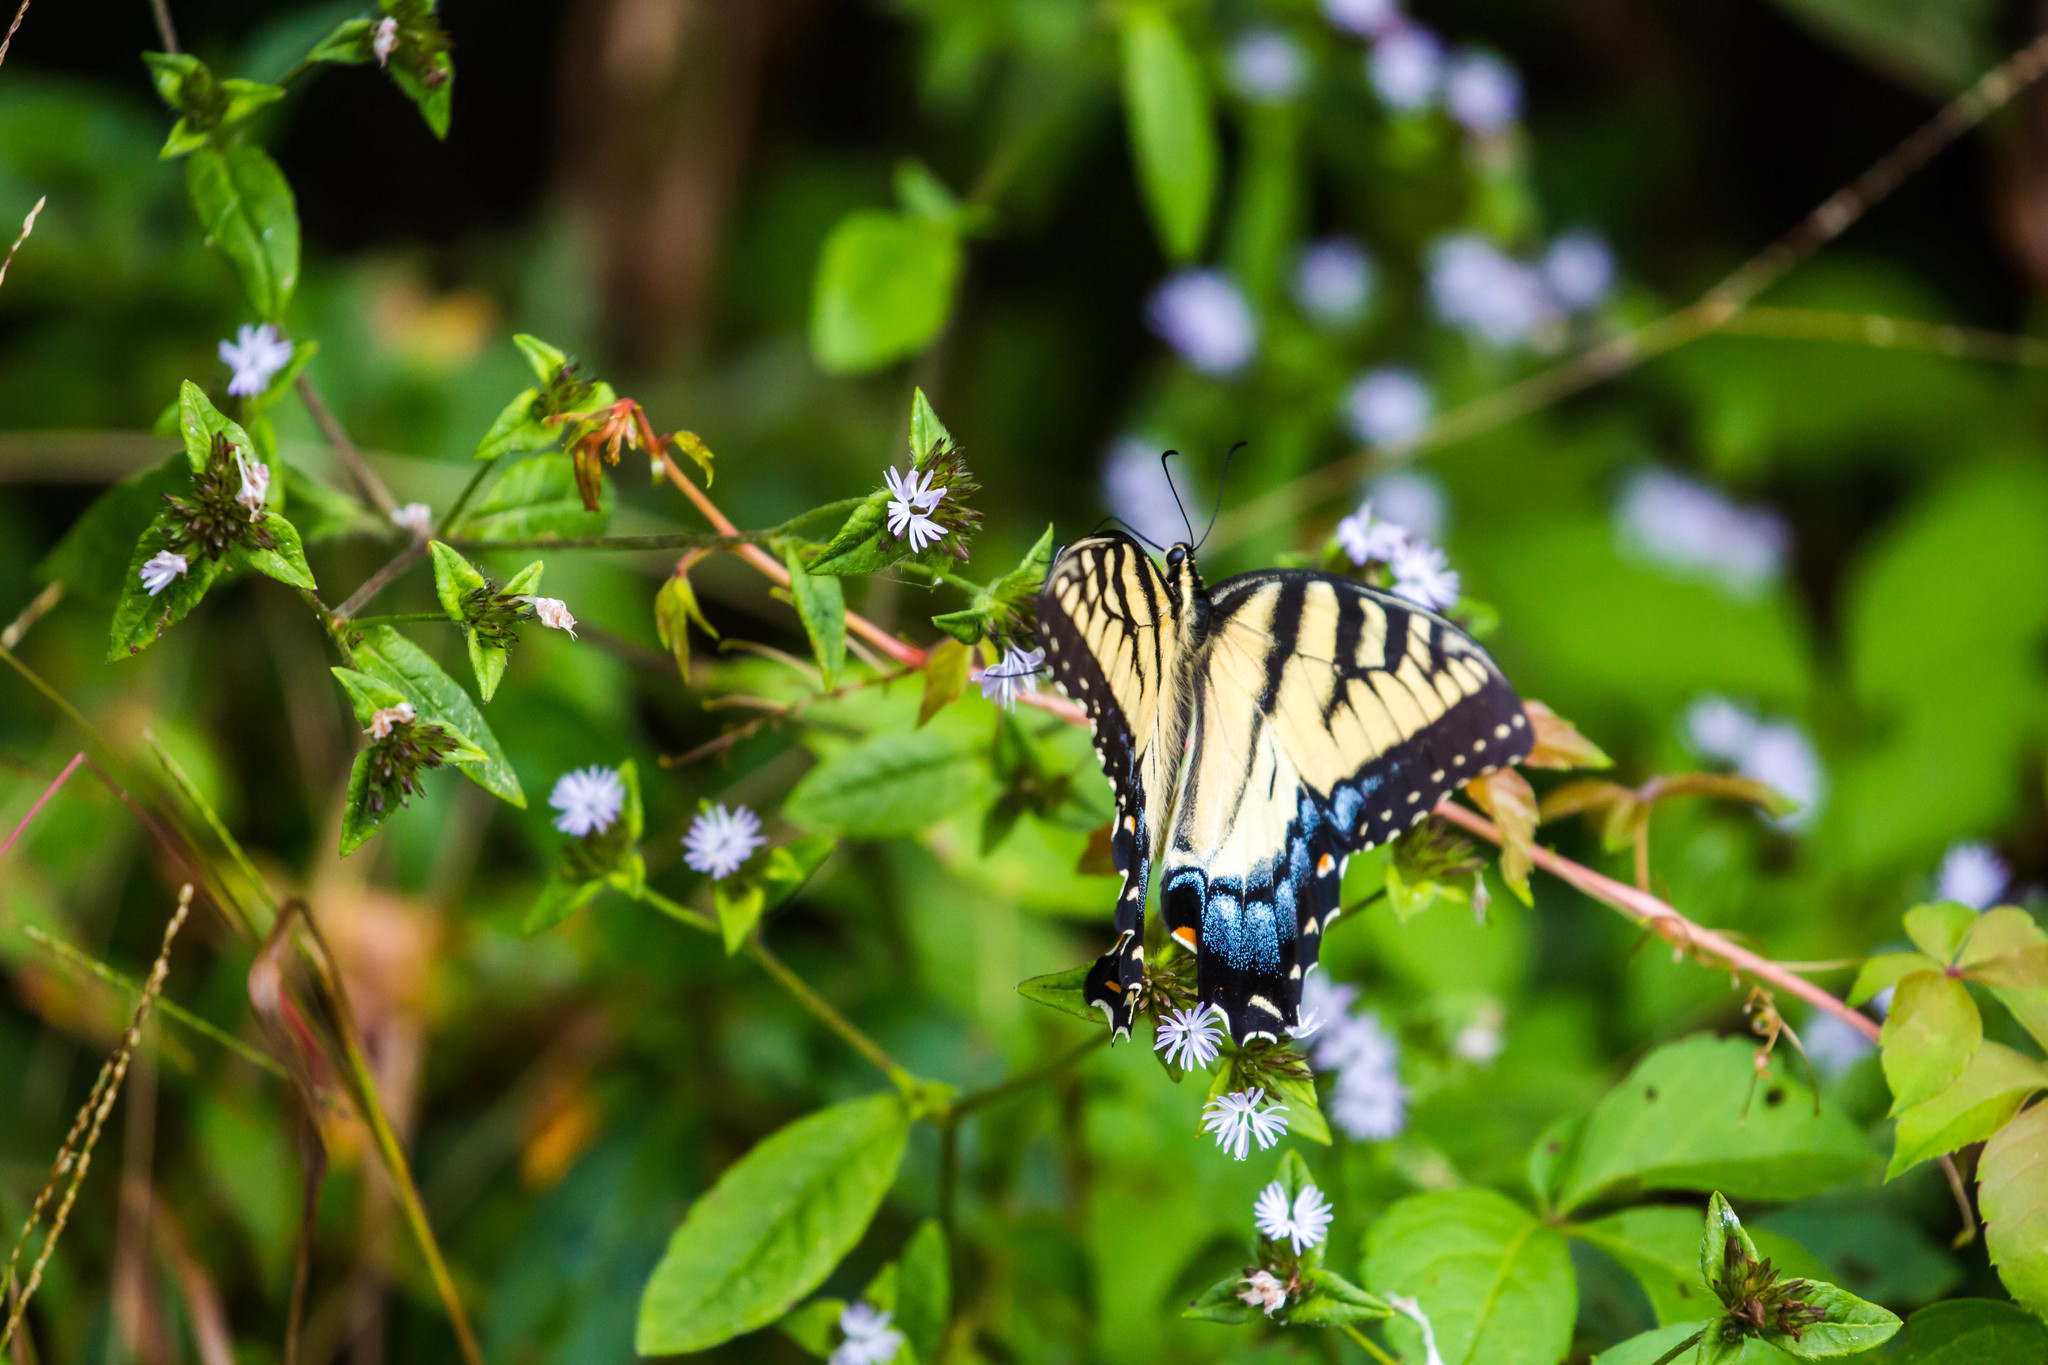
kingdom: Animalia
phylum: Arthropoda
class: Insecta
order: Lepidoptera
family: Papilionidae
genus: Papilio
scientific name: Papilio glaucus
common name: Tiger swallowtail
